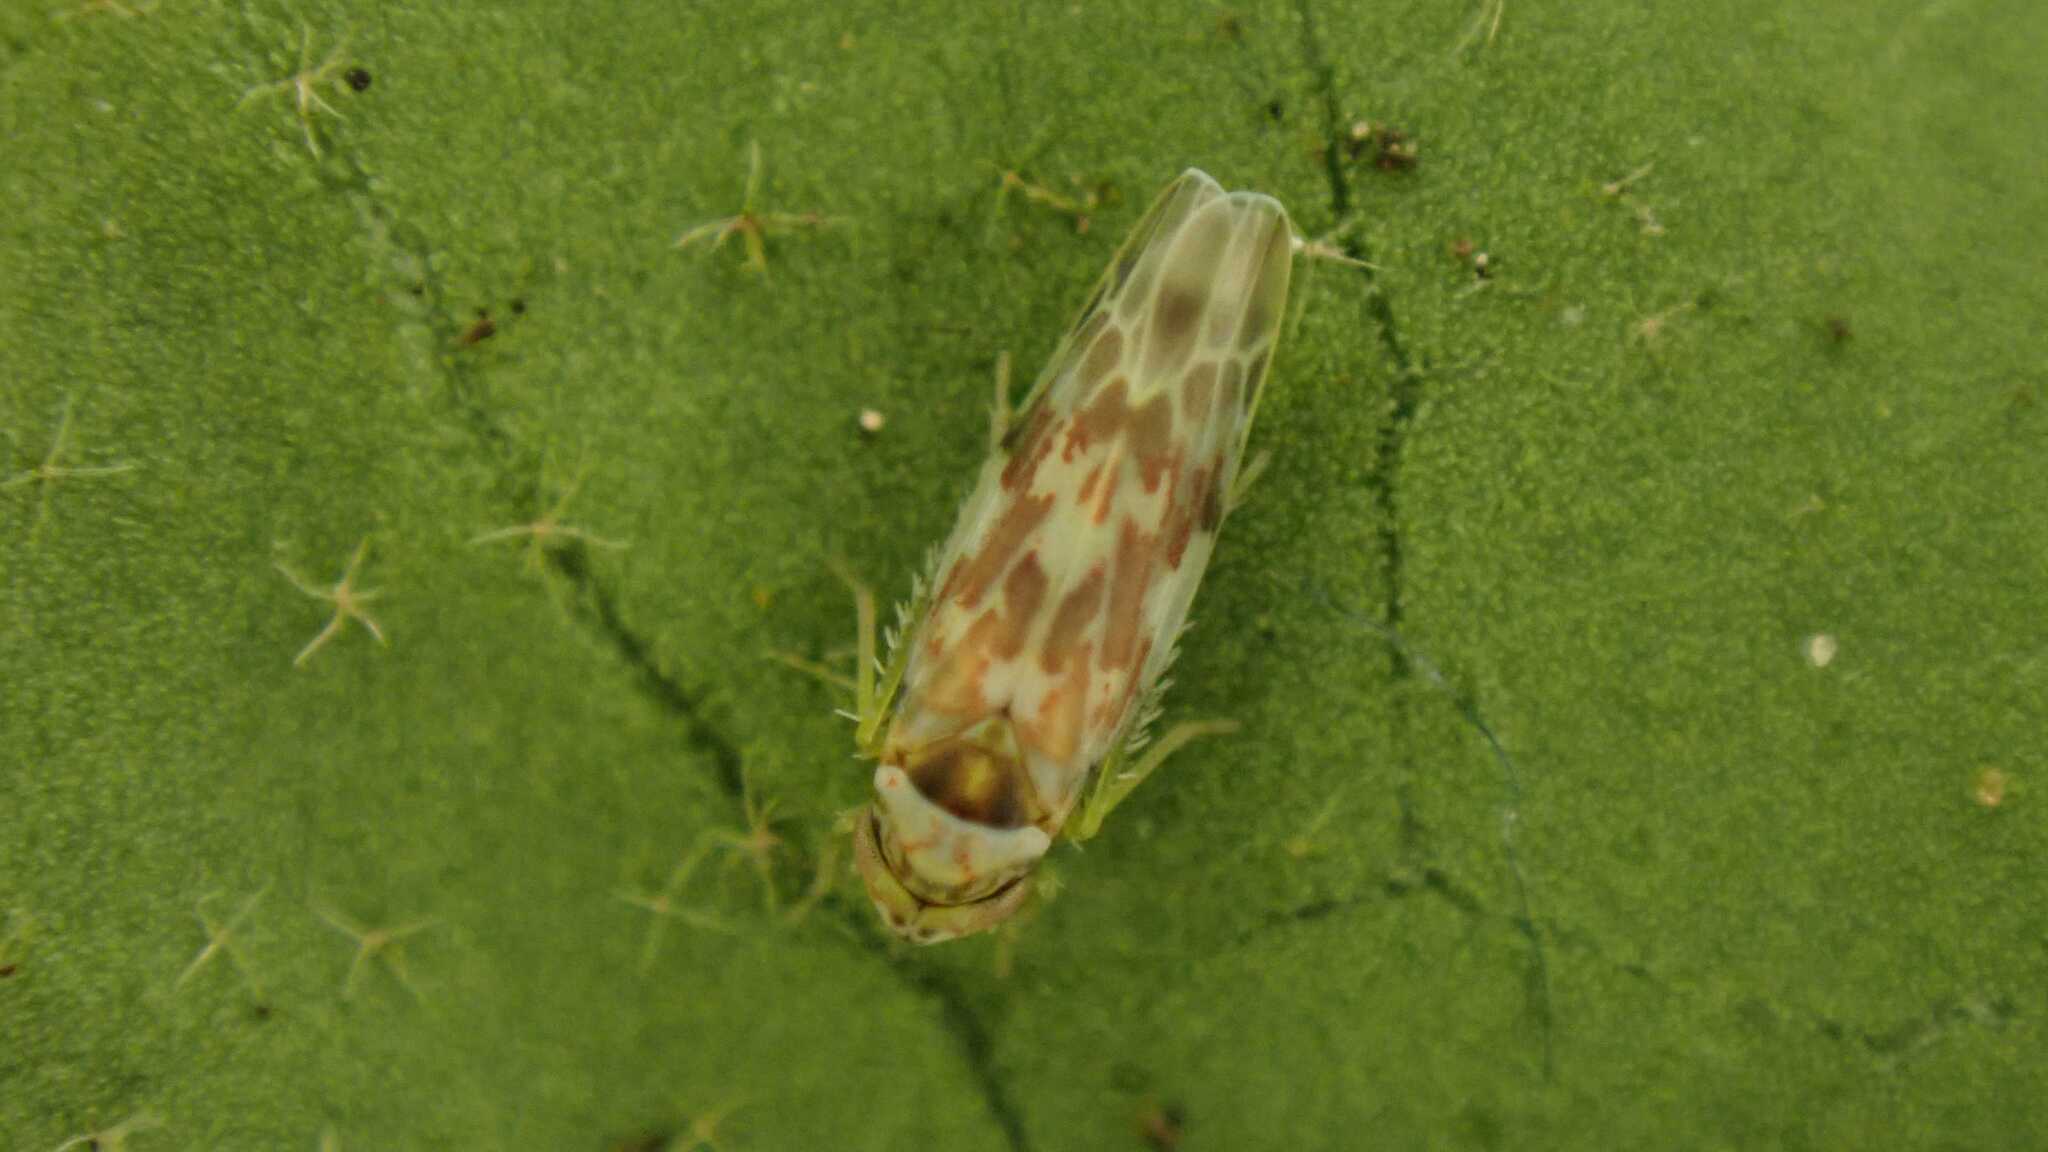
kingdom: Animalia
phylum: Arthropoda
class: Insecta
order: Hemiptera
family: Cicadellidae
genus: Tautoneura
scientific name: Tautoneura polymitusa
